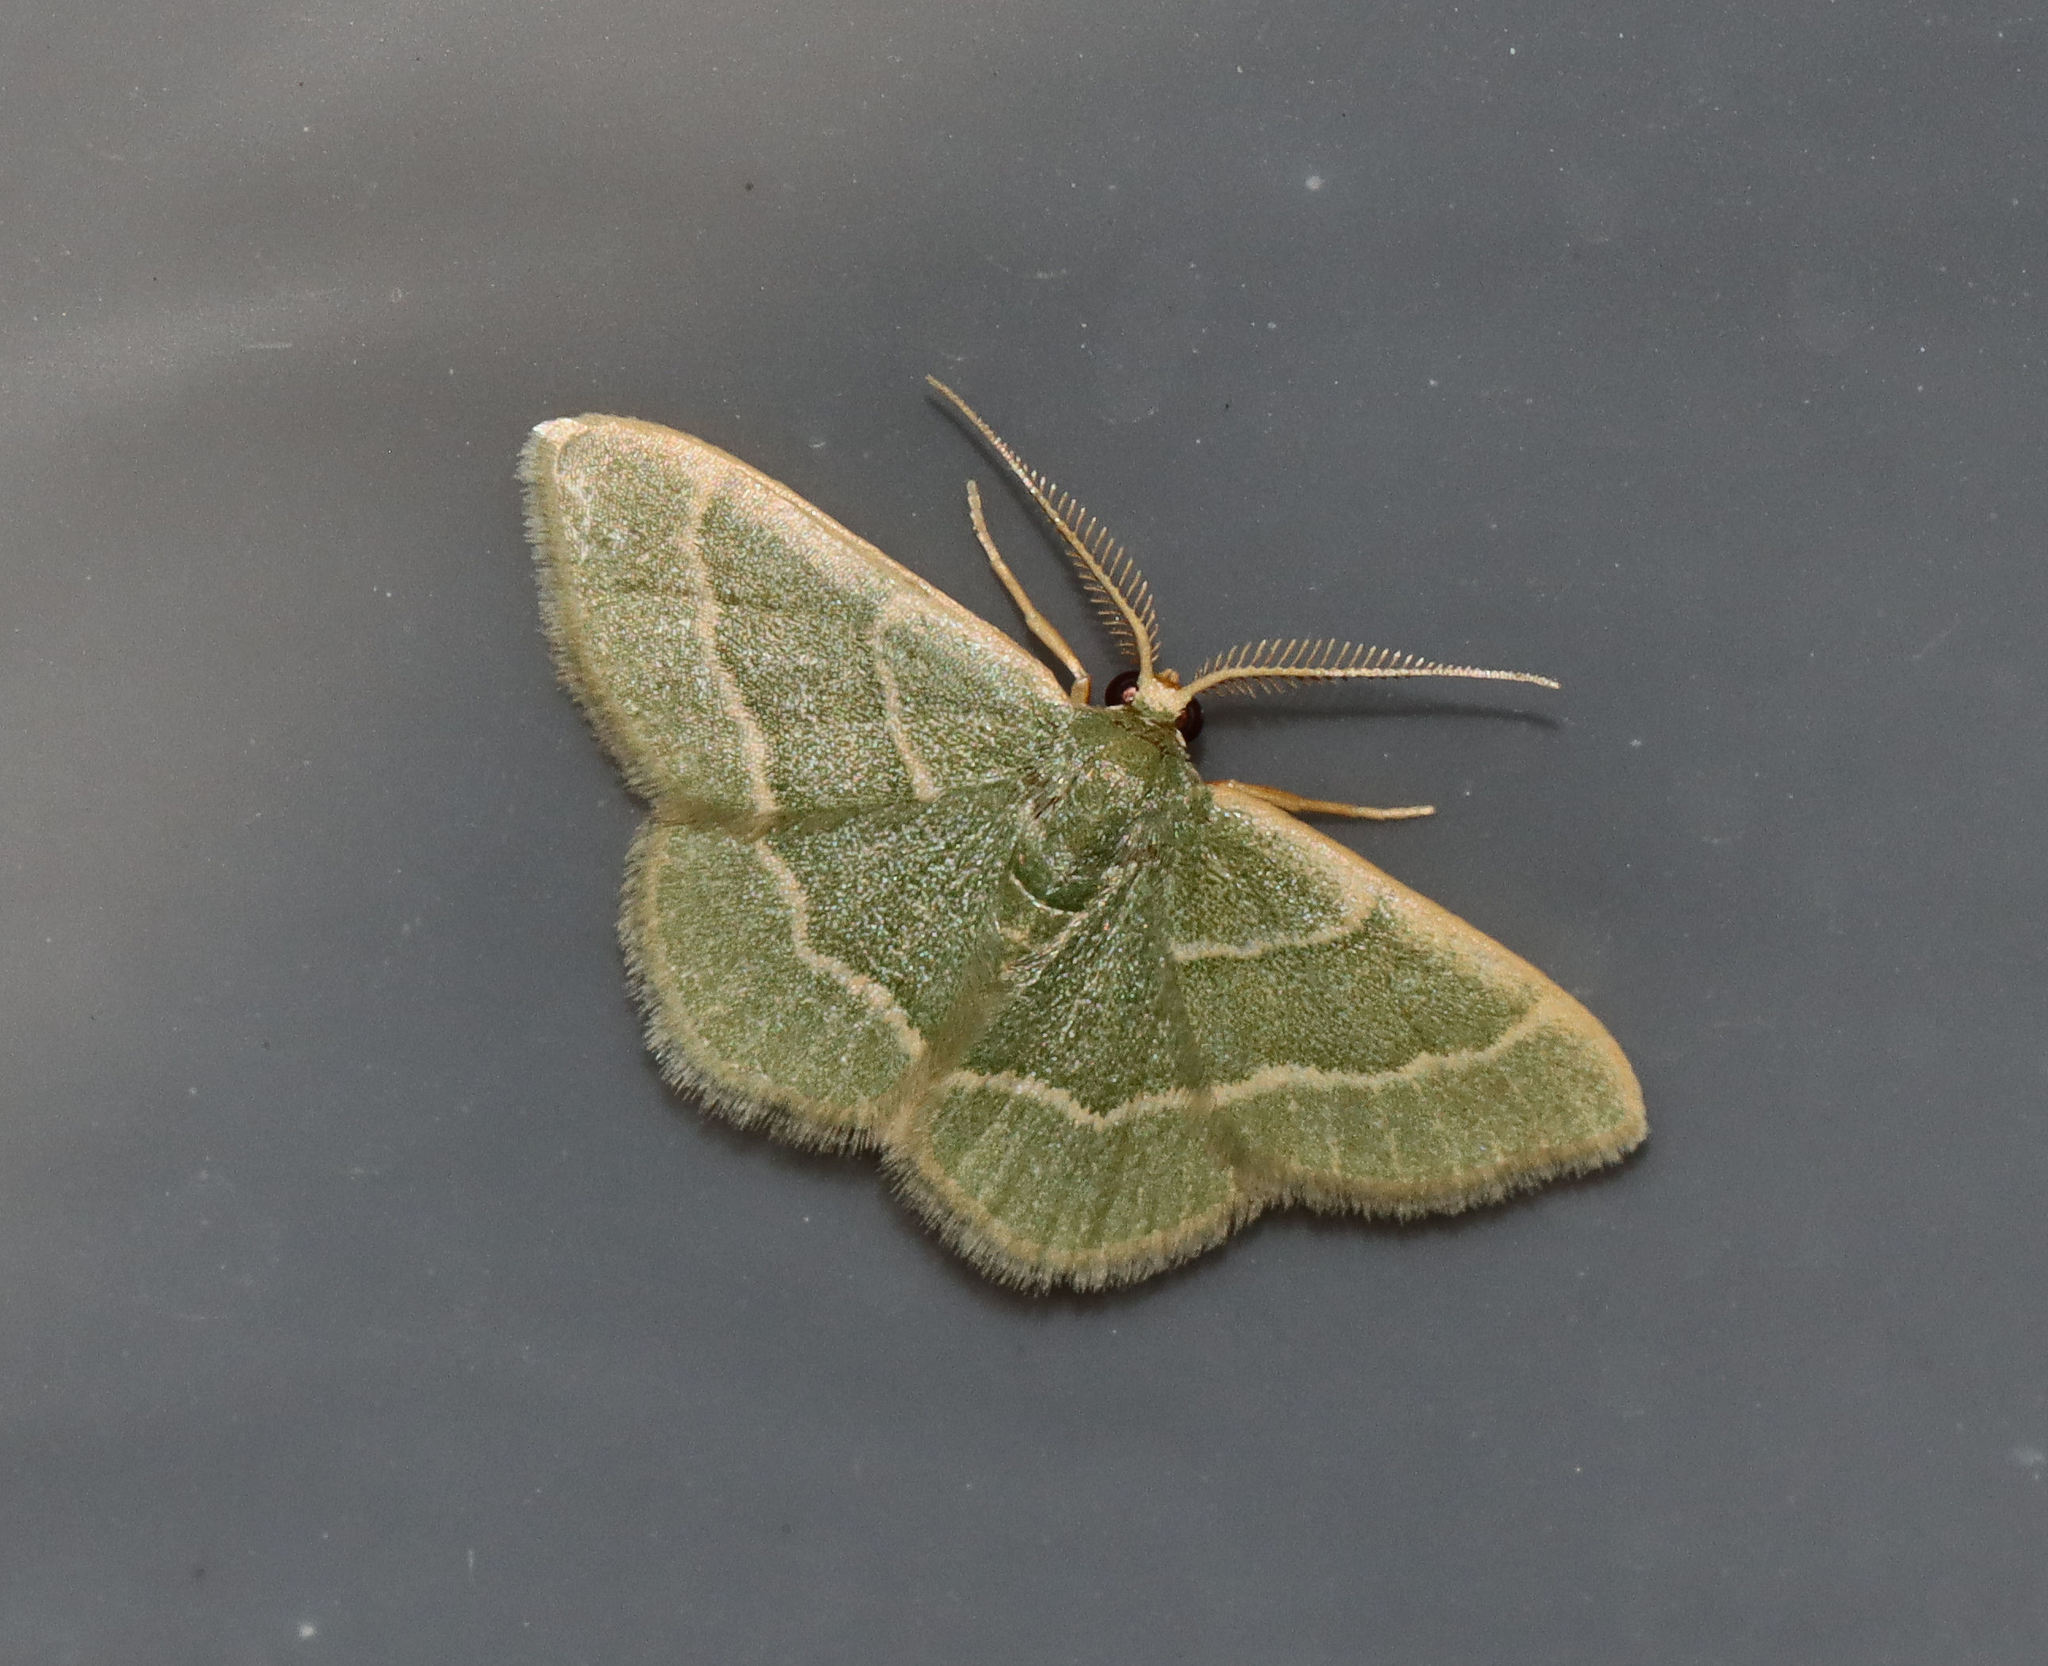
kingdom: Animalia
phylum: Arthropoda
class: Insecta
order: Lepidoptera
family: Geometridae
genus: Chlorochlamys
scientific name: Chlorochlamys phyllinaria
